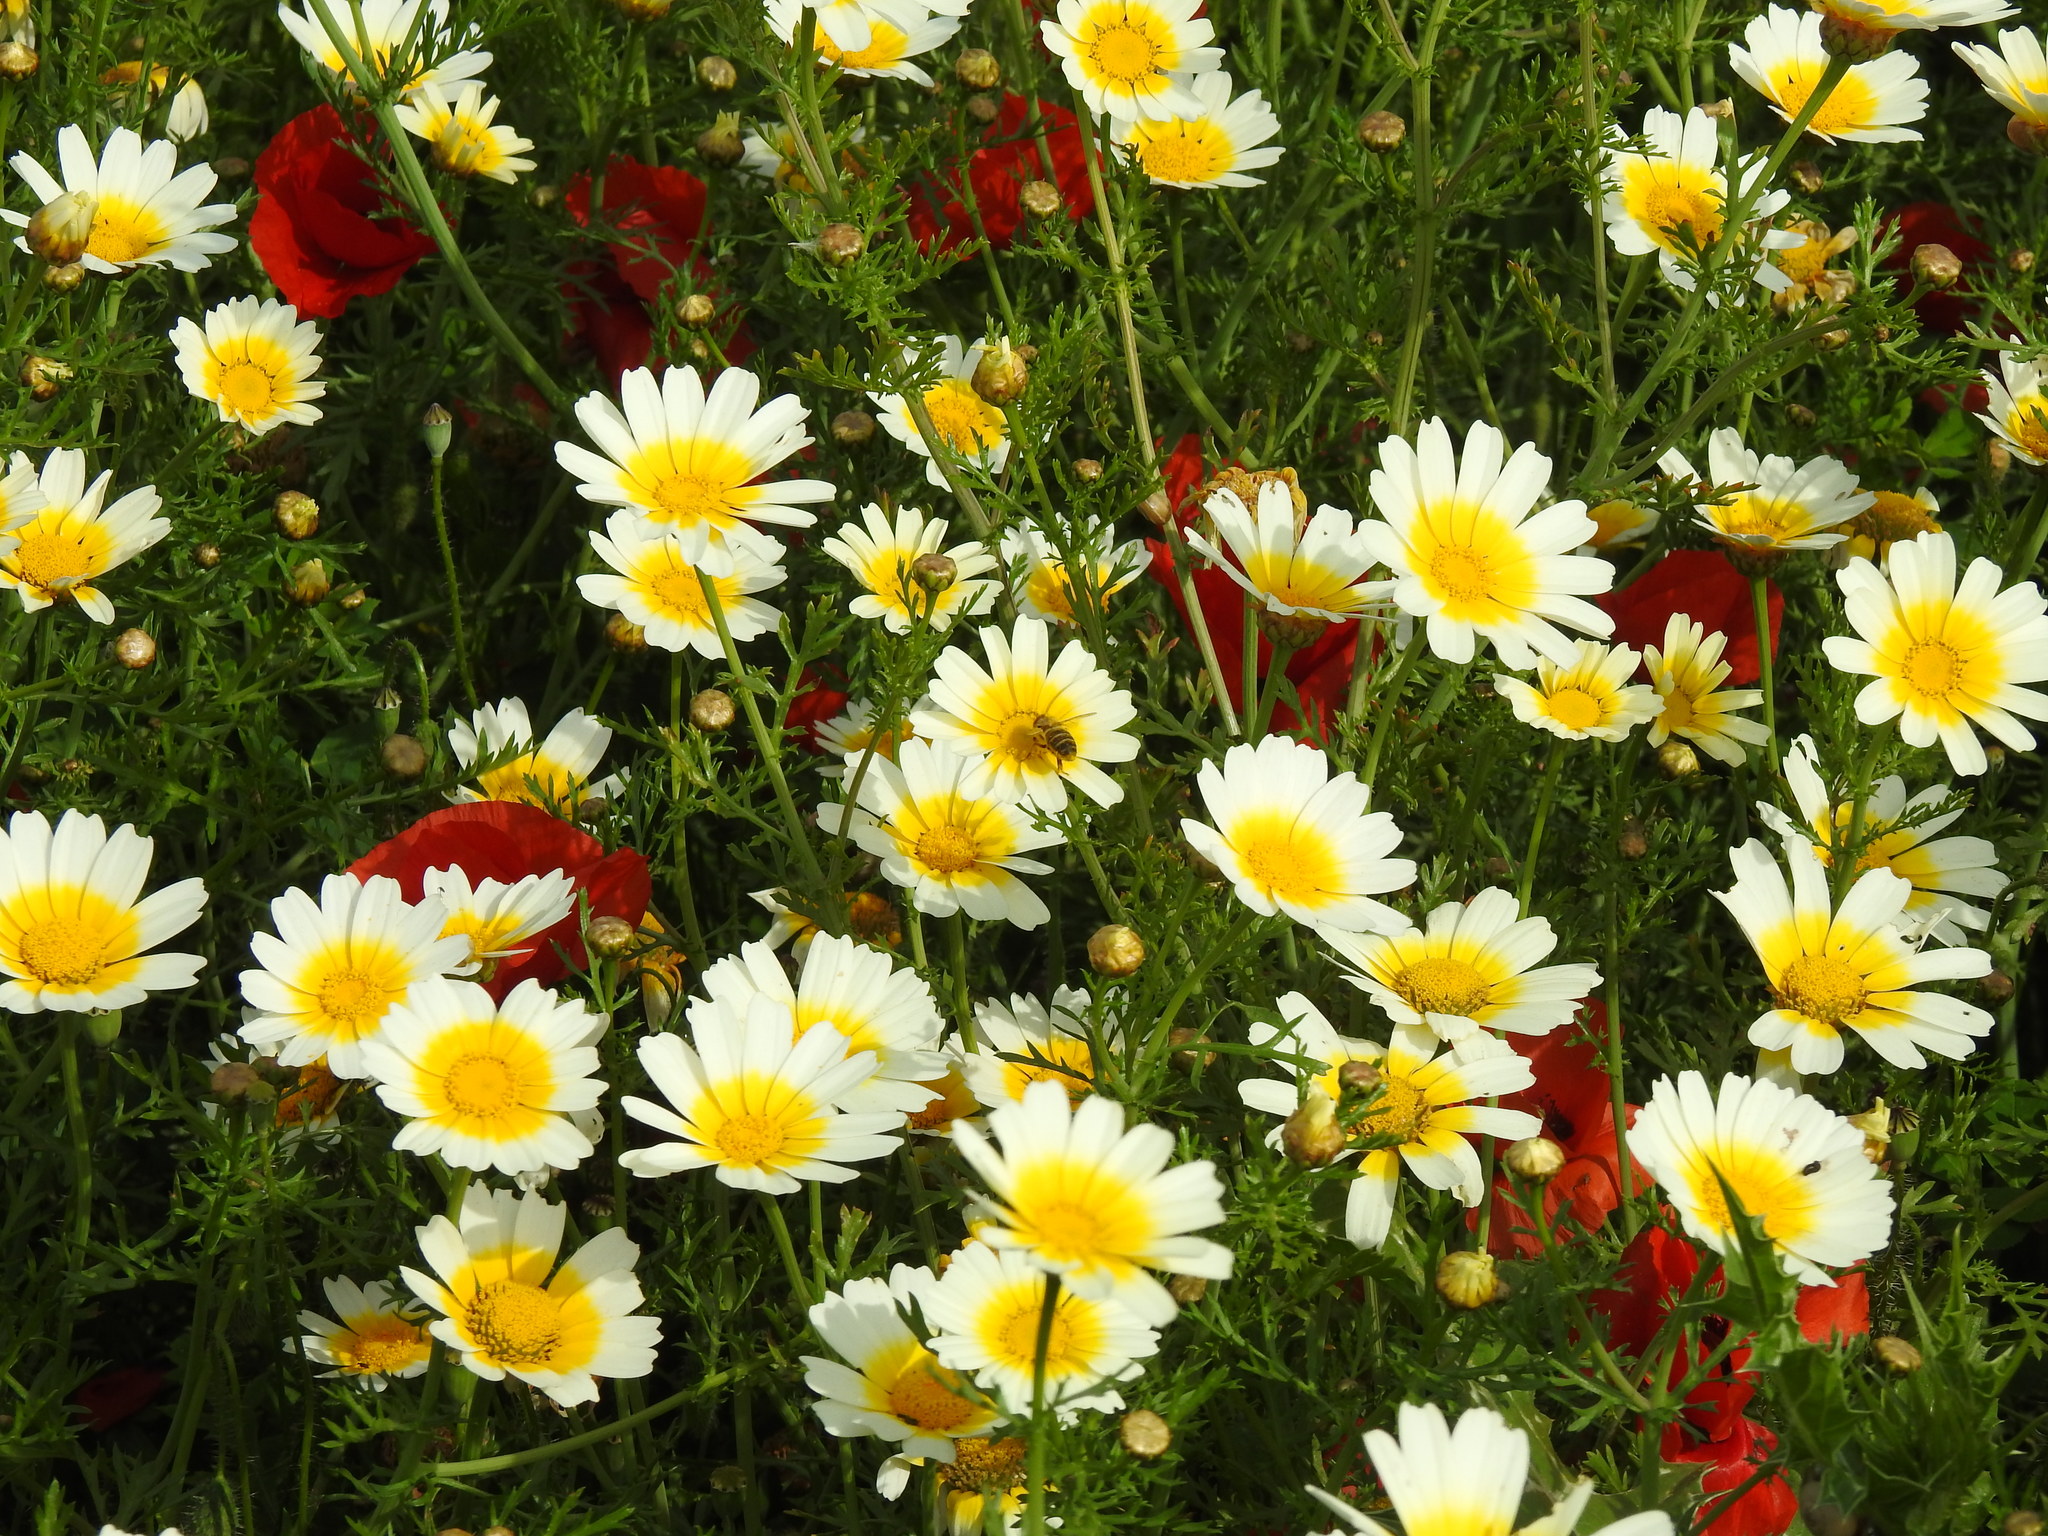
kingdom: Plantae
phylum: Tracheophyta
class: Magnoliopsida
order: Asterales
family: Asteraceae
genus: Glebionis
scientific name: Glebionis coronaria
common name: Crowndaisy
